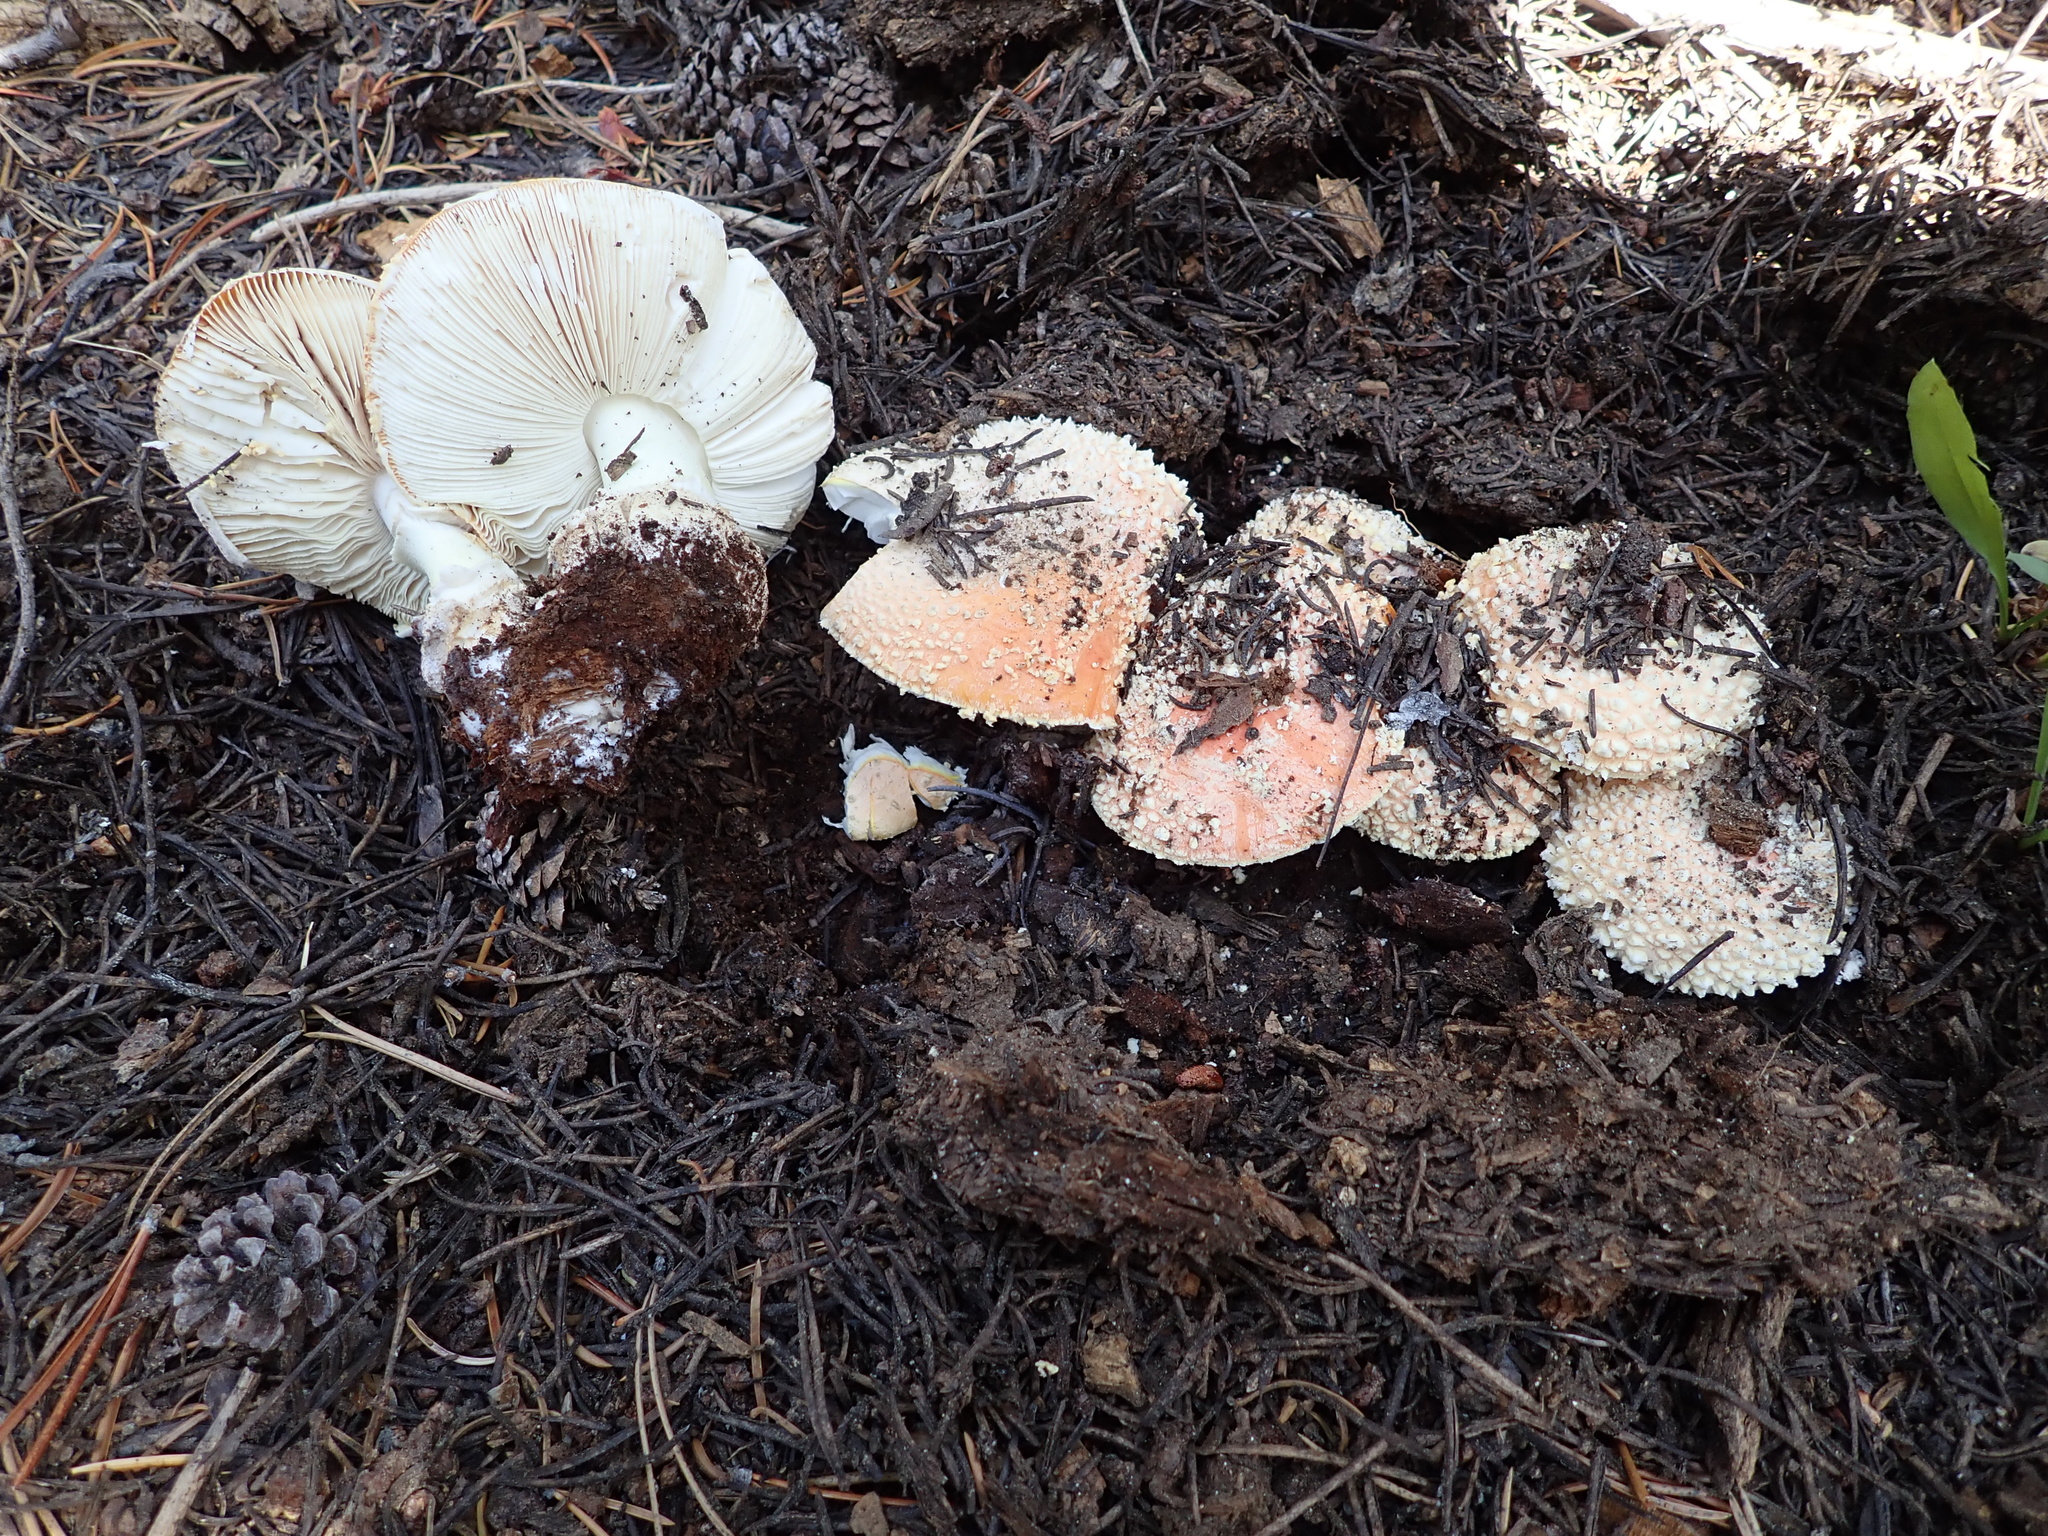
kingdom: Fungi
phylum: Basidiomycota
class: Agaricomycetes
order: Agaricales
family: Amanitaceae
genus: Amanita
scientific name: Amanita muscaria
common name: Fly agaric
